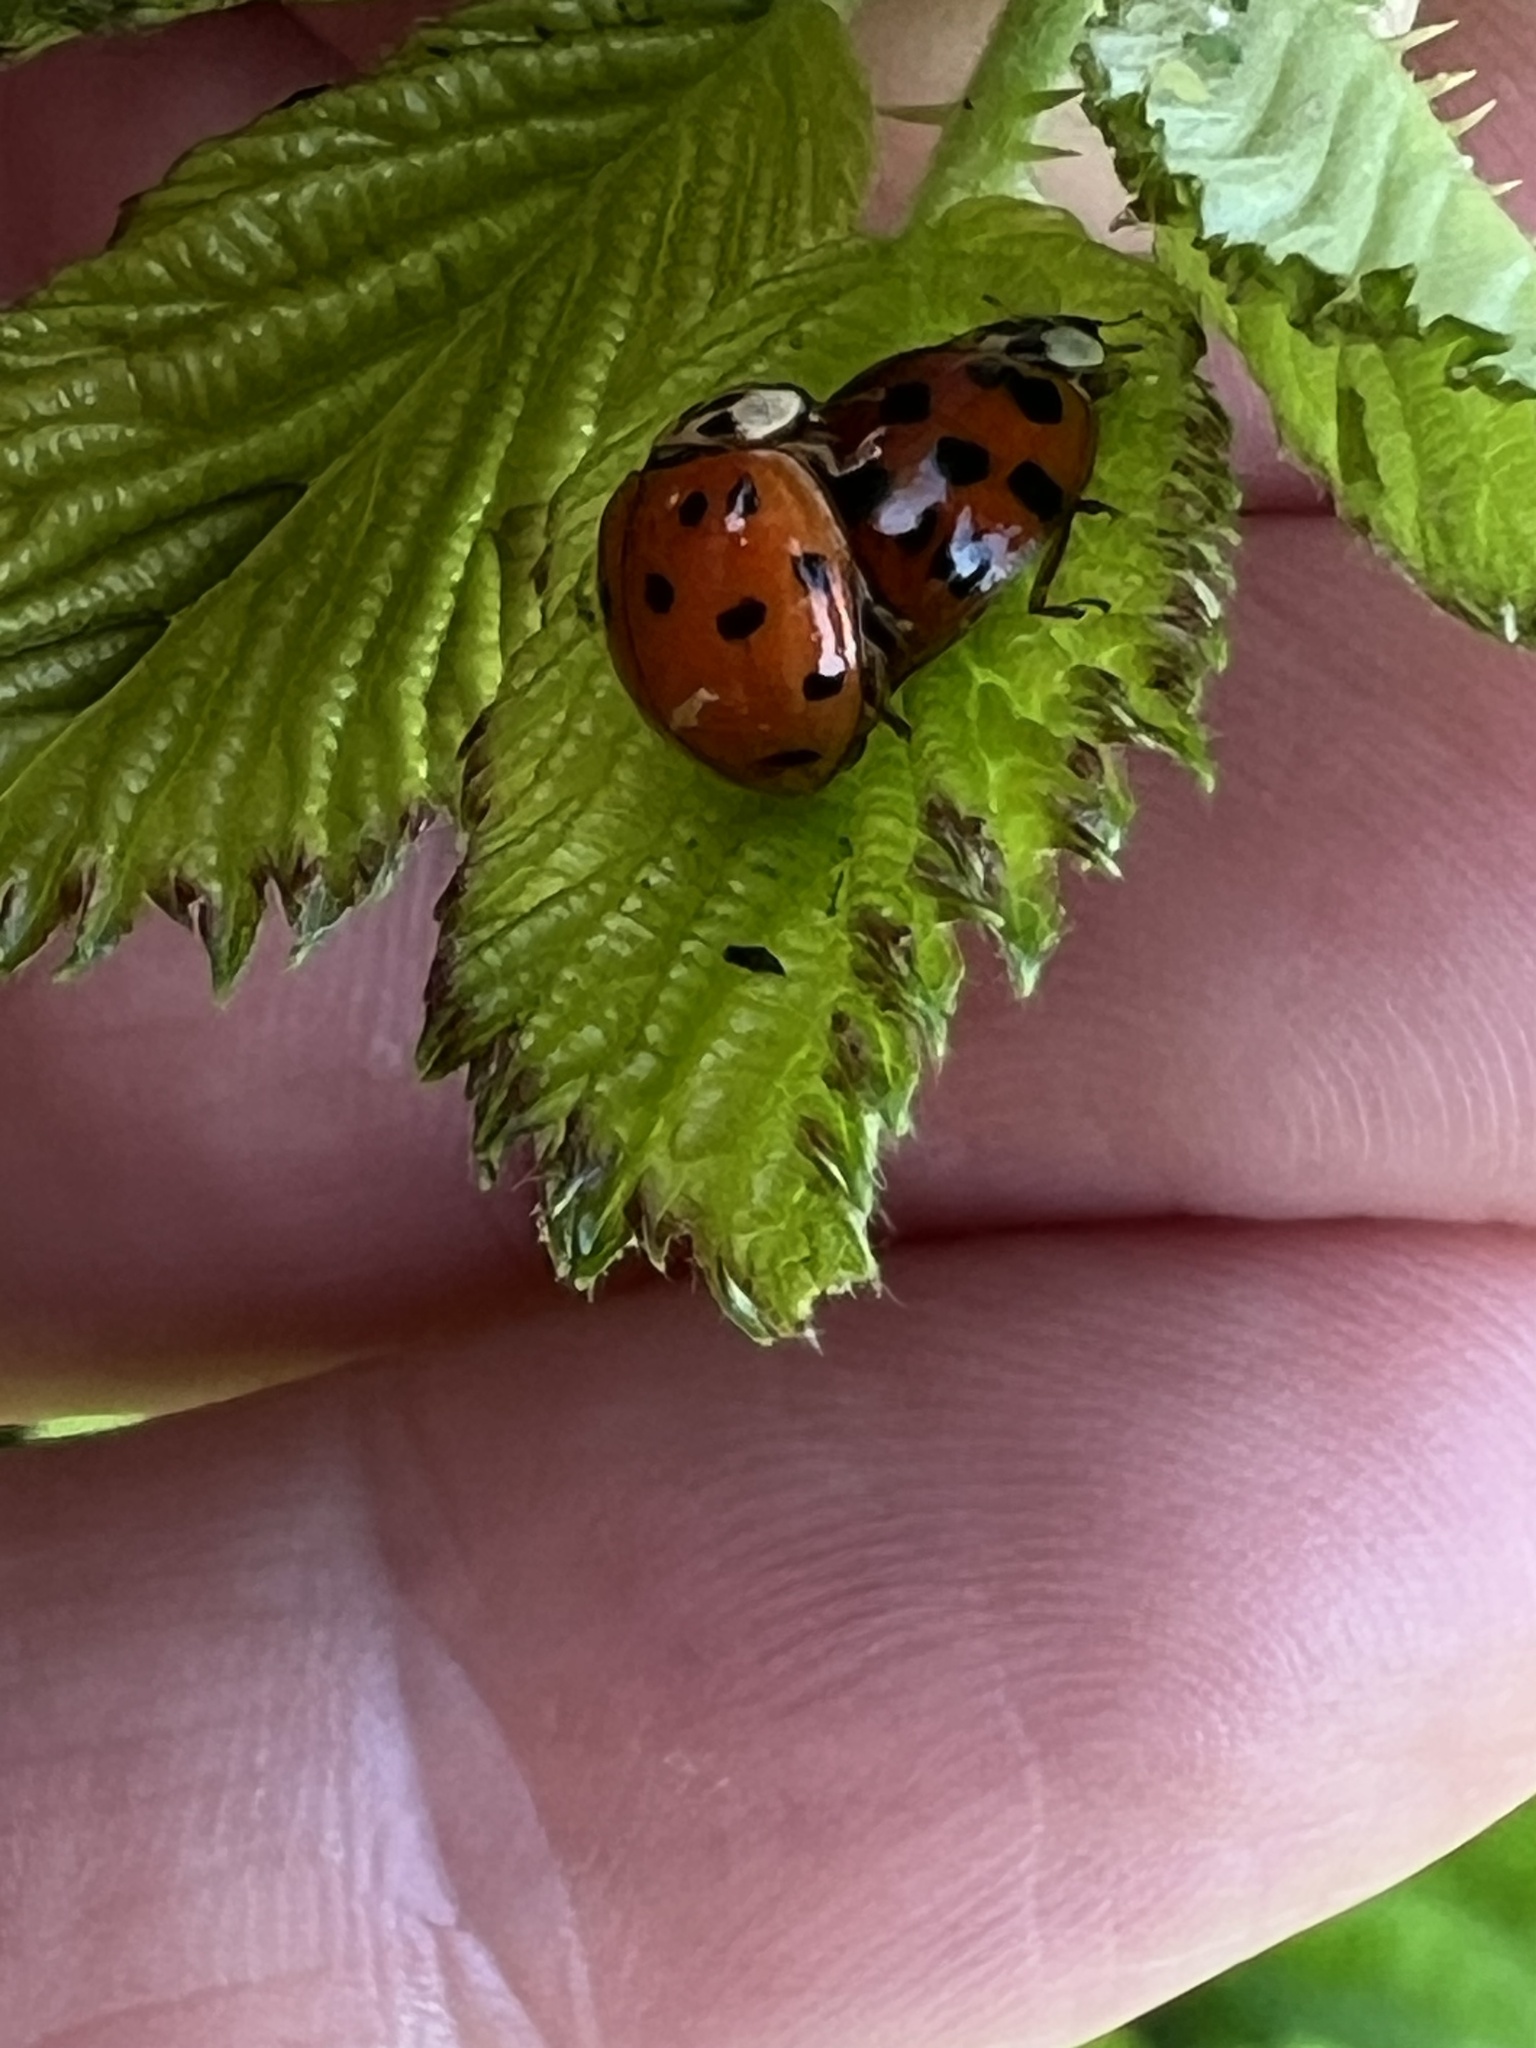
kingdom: Animalia
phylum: Arthropoda
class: Insecta
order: Coleoptera
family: Coccinellidae
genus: Harmonia
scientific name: Harmonia axyridis
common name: Harlequin ladybird
